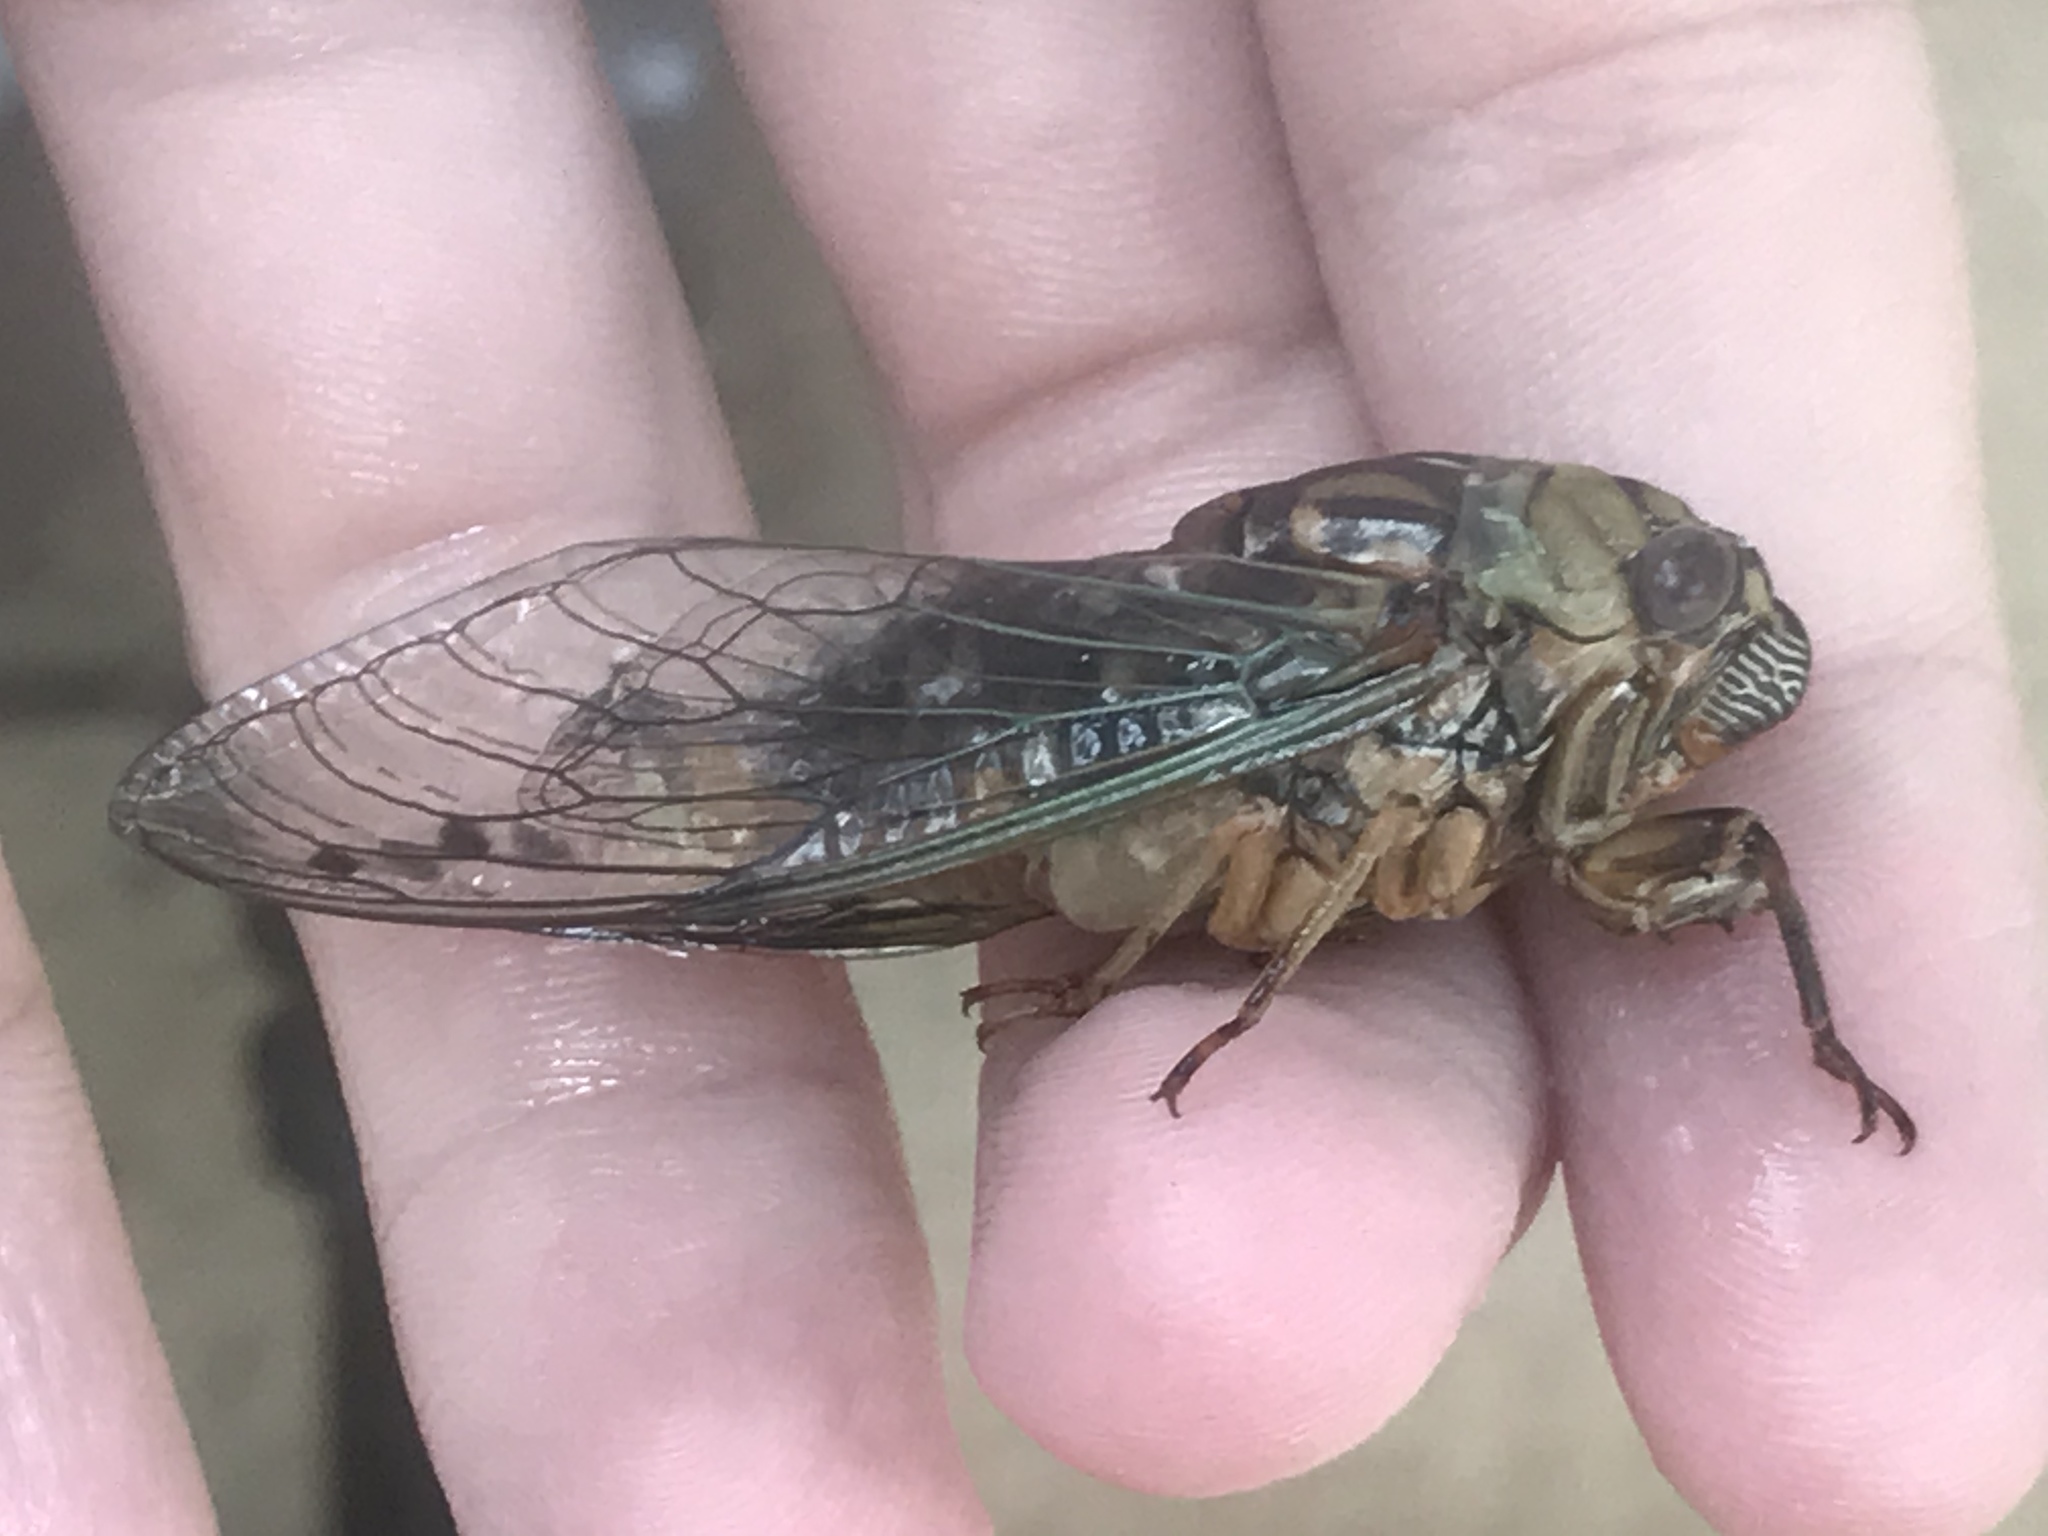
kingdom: Animalia
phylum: Arthropoda
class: Insecta
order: Hemiptera
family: Cicadidae
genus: Megatibicen
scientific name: Megatibicen resh
